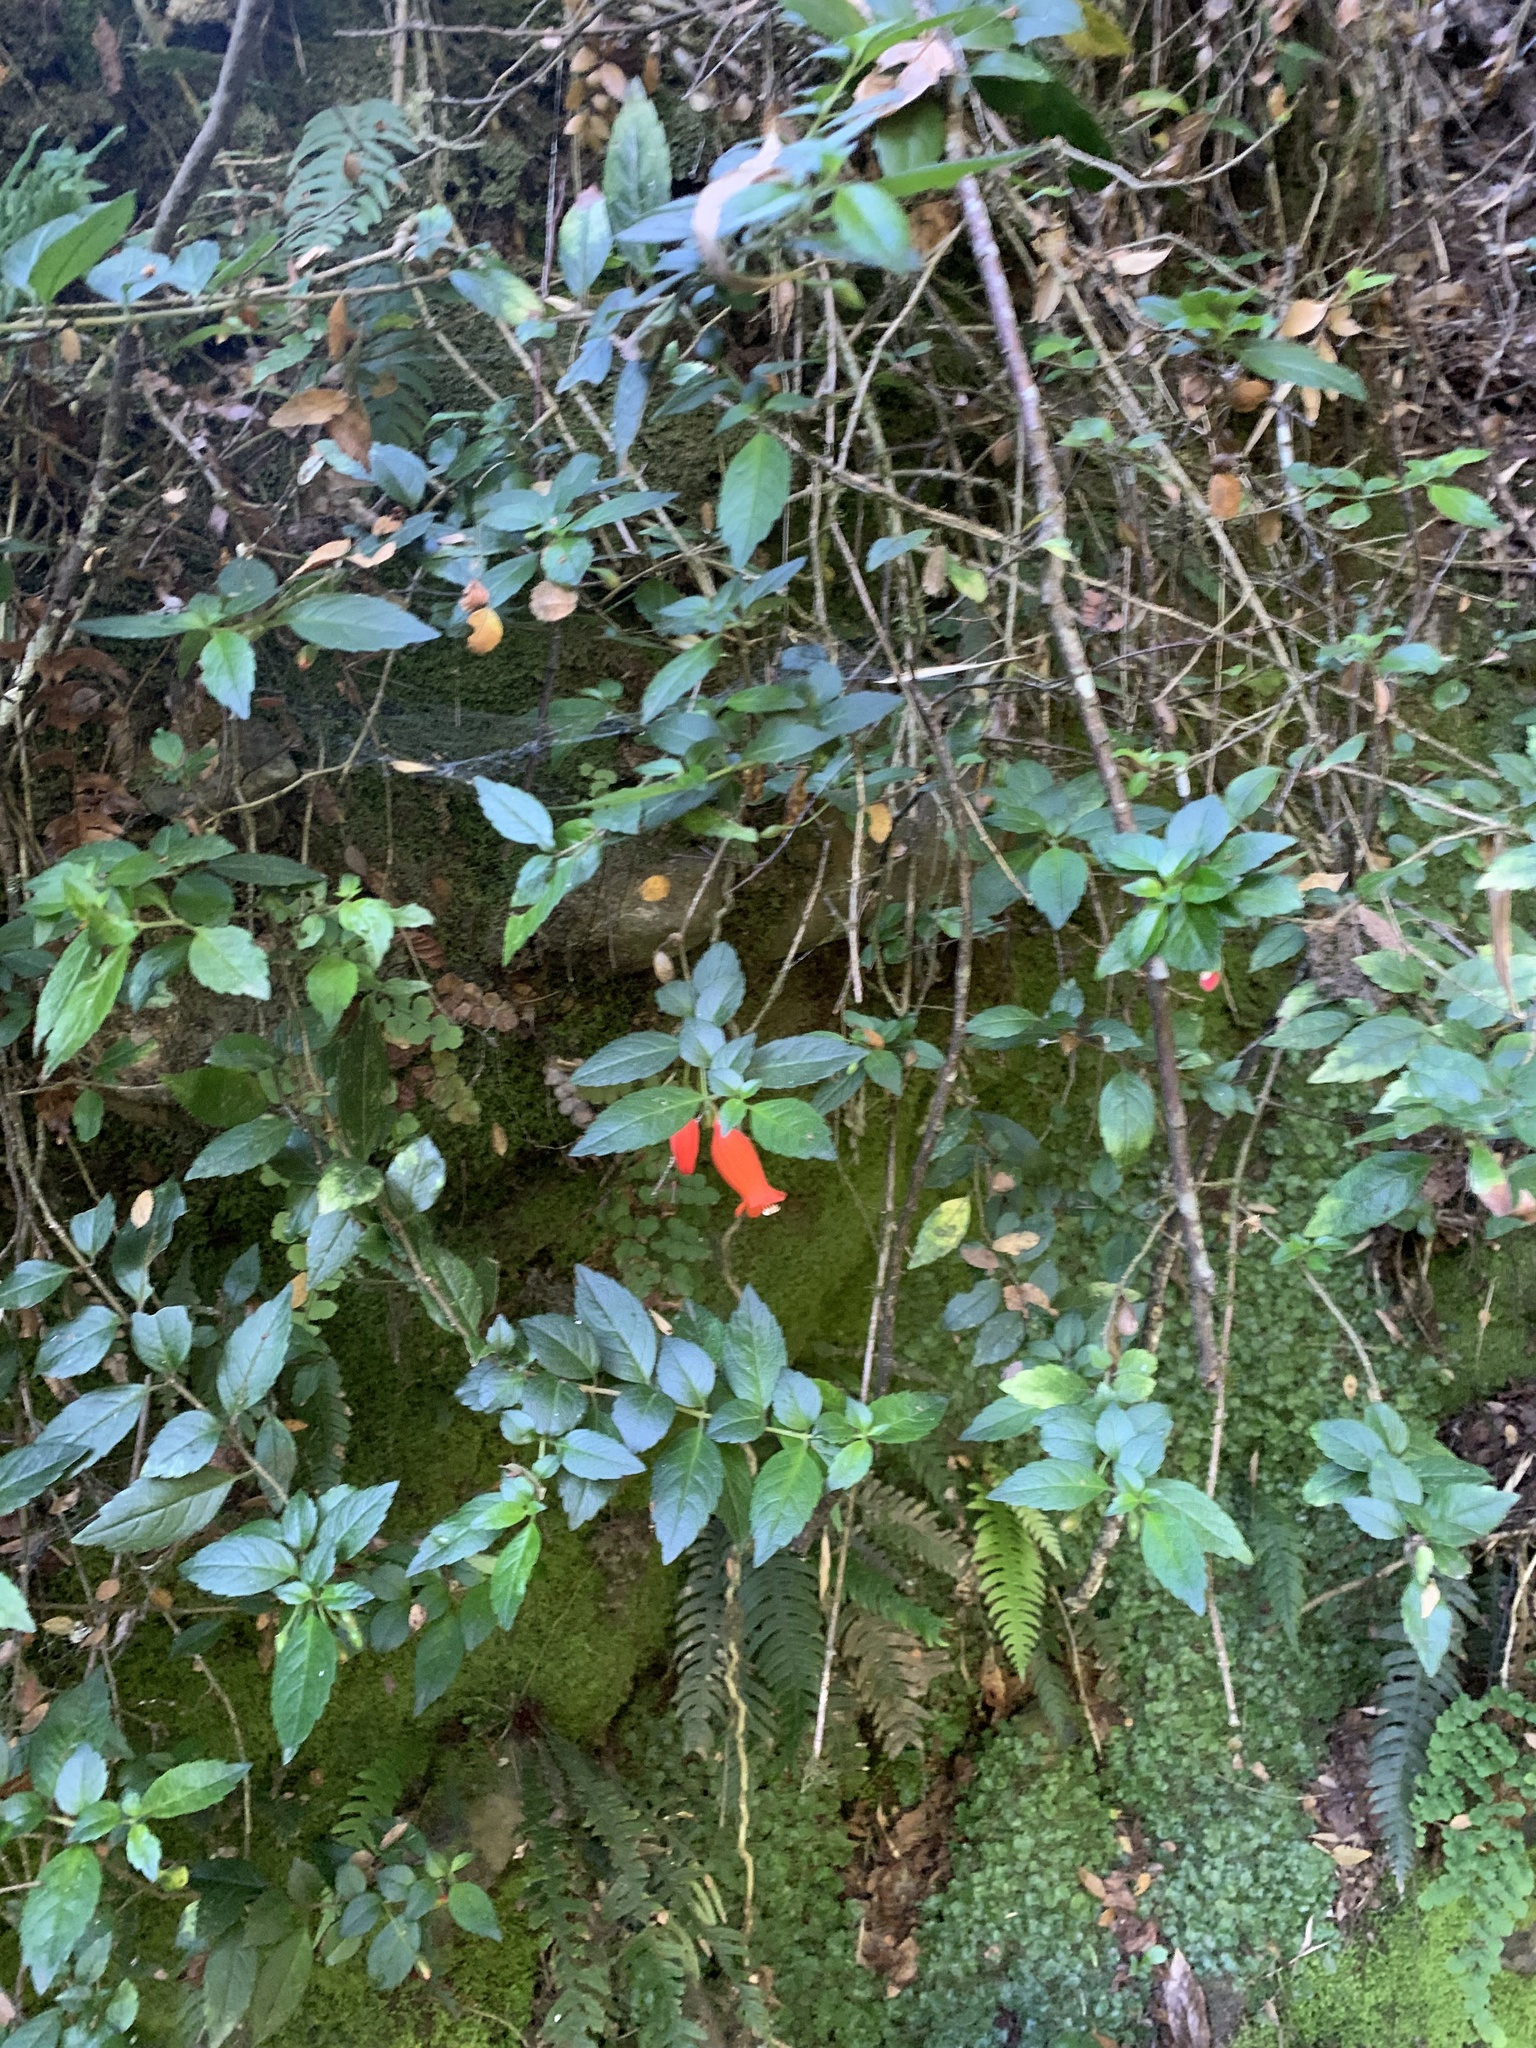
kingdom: Plantae
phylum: Tracheophyta
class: Magnoliopsida
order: Lamiales
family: Gesneriaceae
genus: Mitraria
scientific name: Mitraria coccinea
